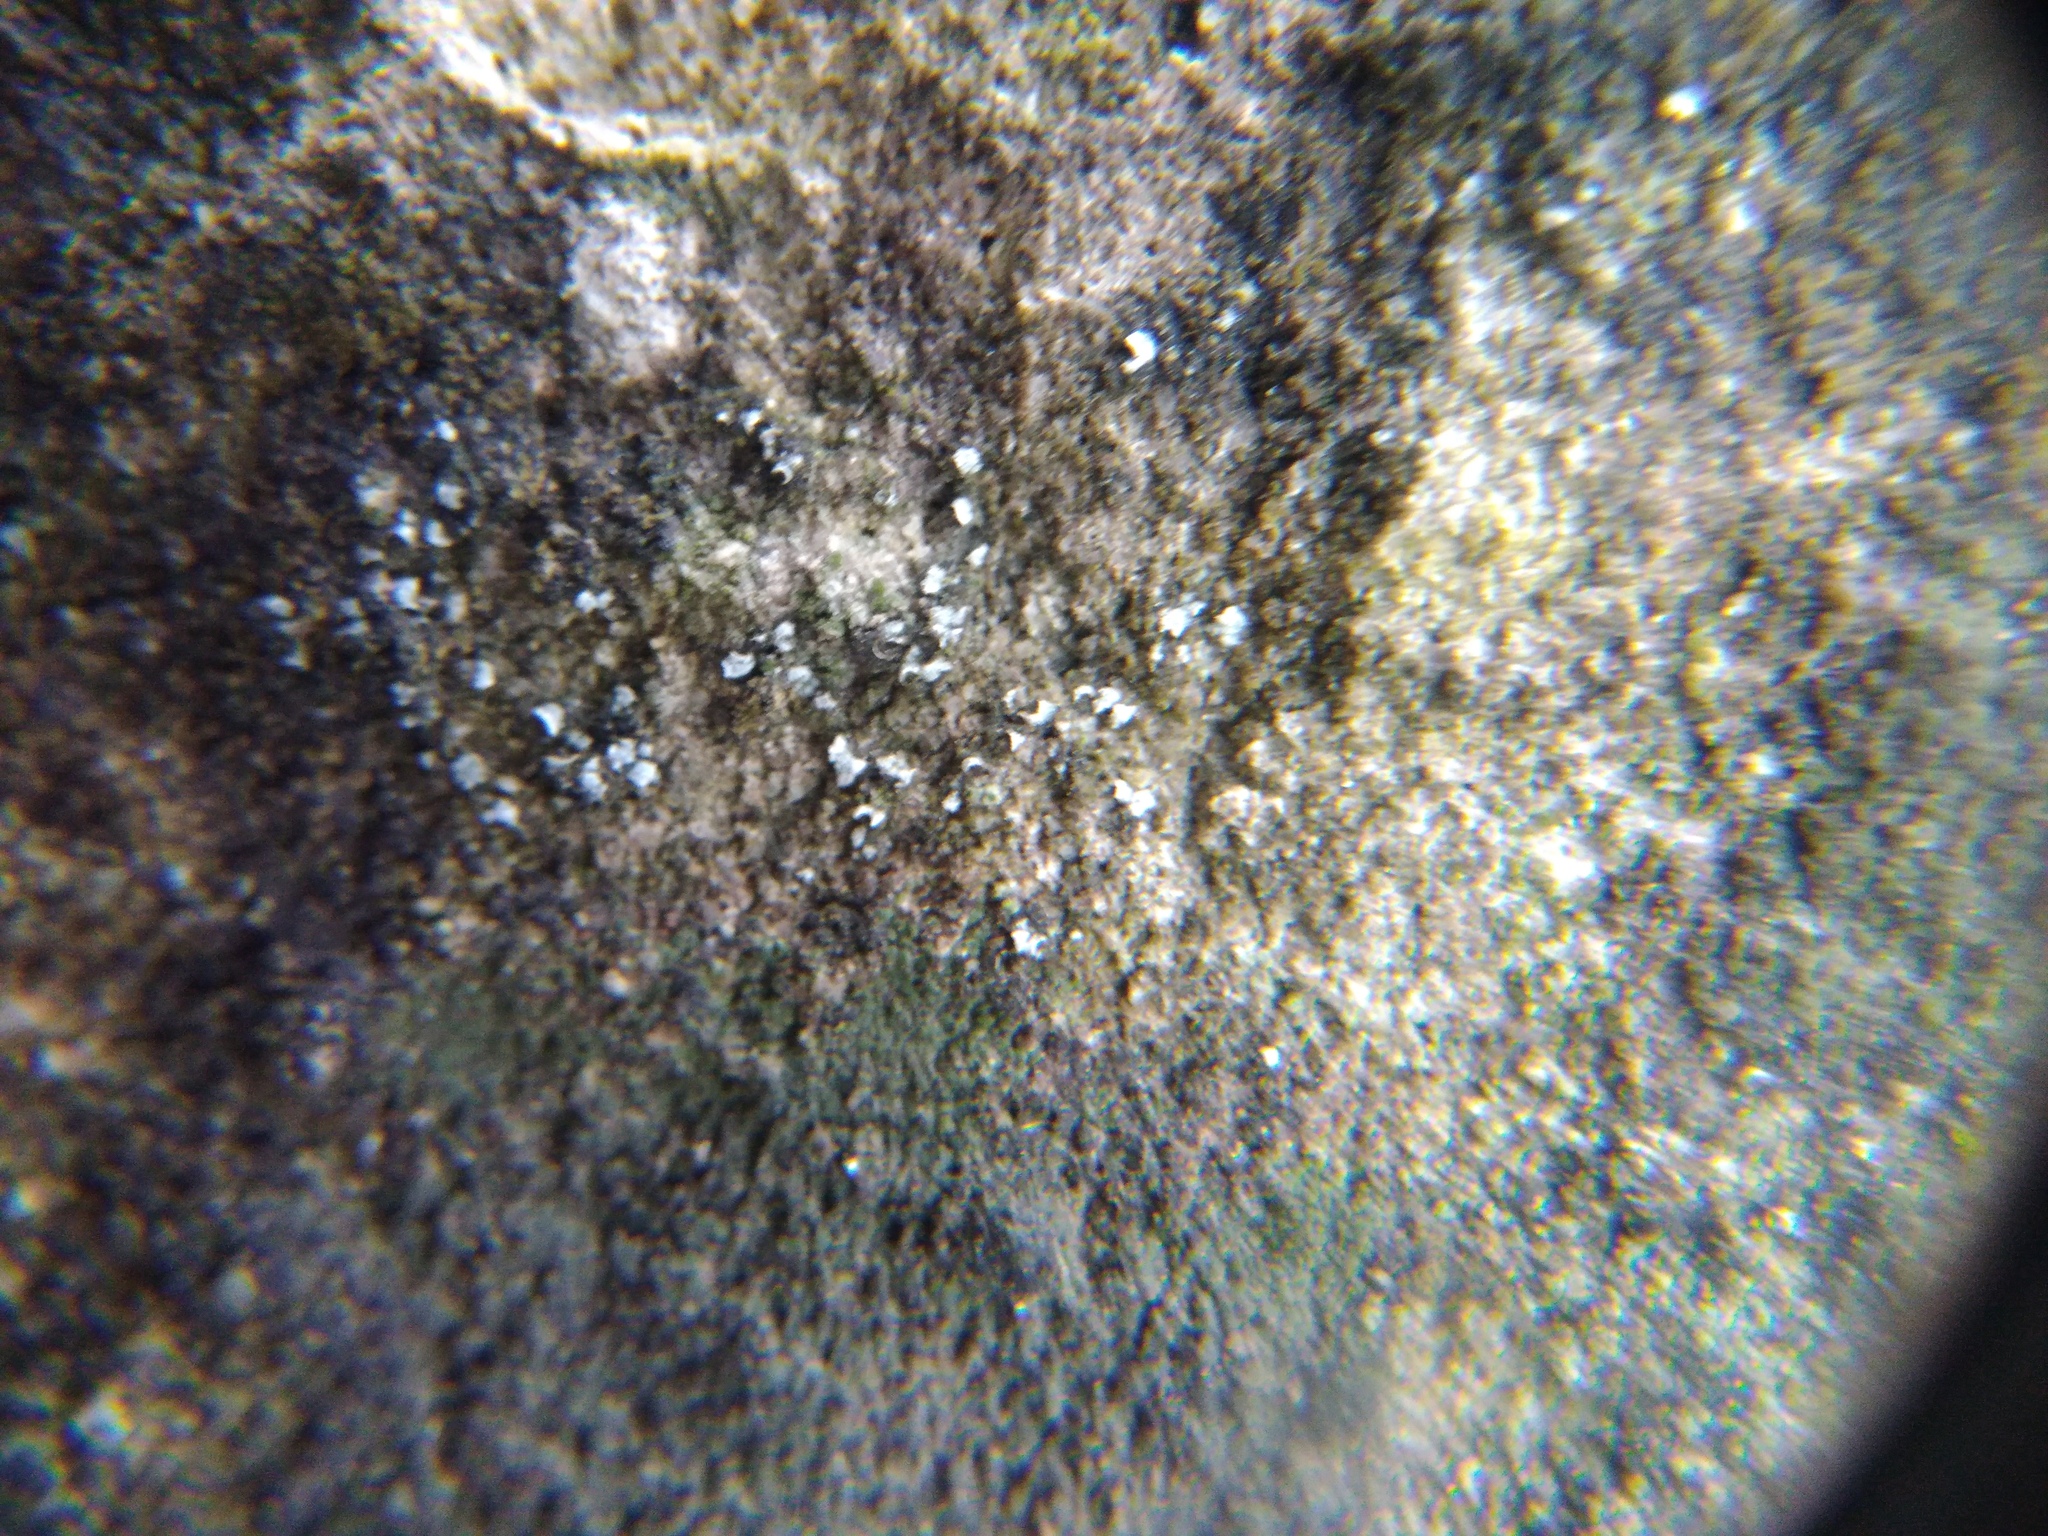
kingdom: Fungi
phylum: Ascomycota
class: Lecanoromycetes
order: Acarosporales
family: Acarosporaceae
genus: Acarospora
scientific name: Acarospora moenium
